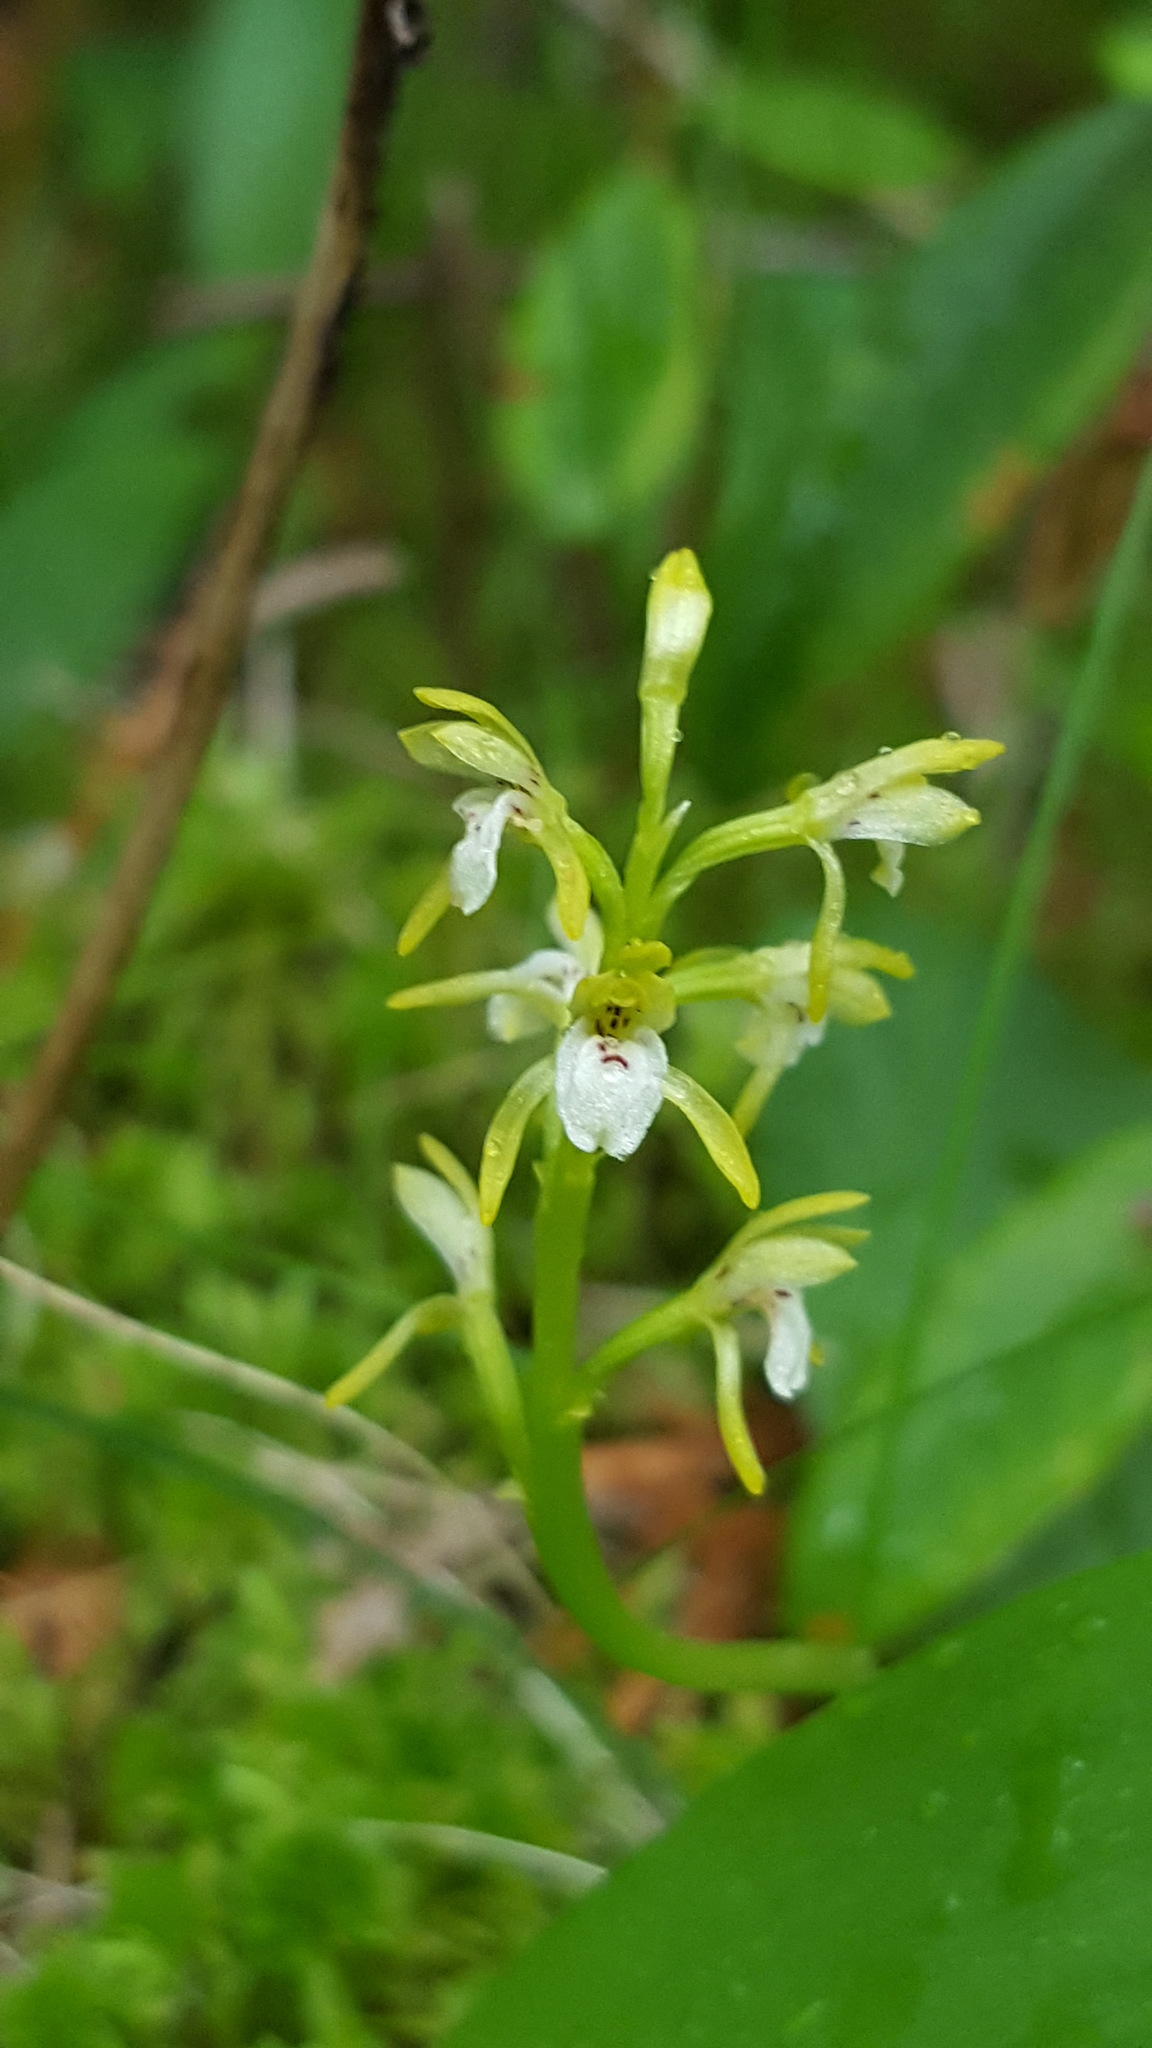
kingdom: Plantae
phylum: Tracheophyta
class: Liliopsida
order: Asparagales
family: Orchidaceae
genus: Corallorhiza
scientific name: Corallorhiza trifida
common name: Yellow coralroot
